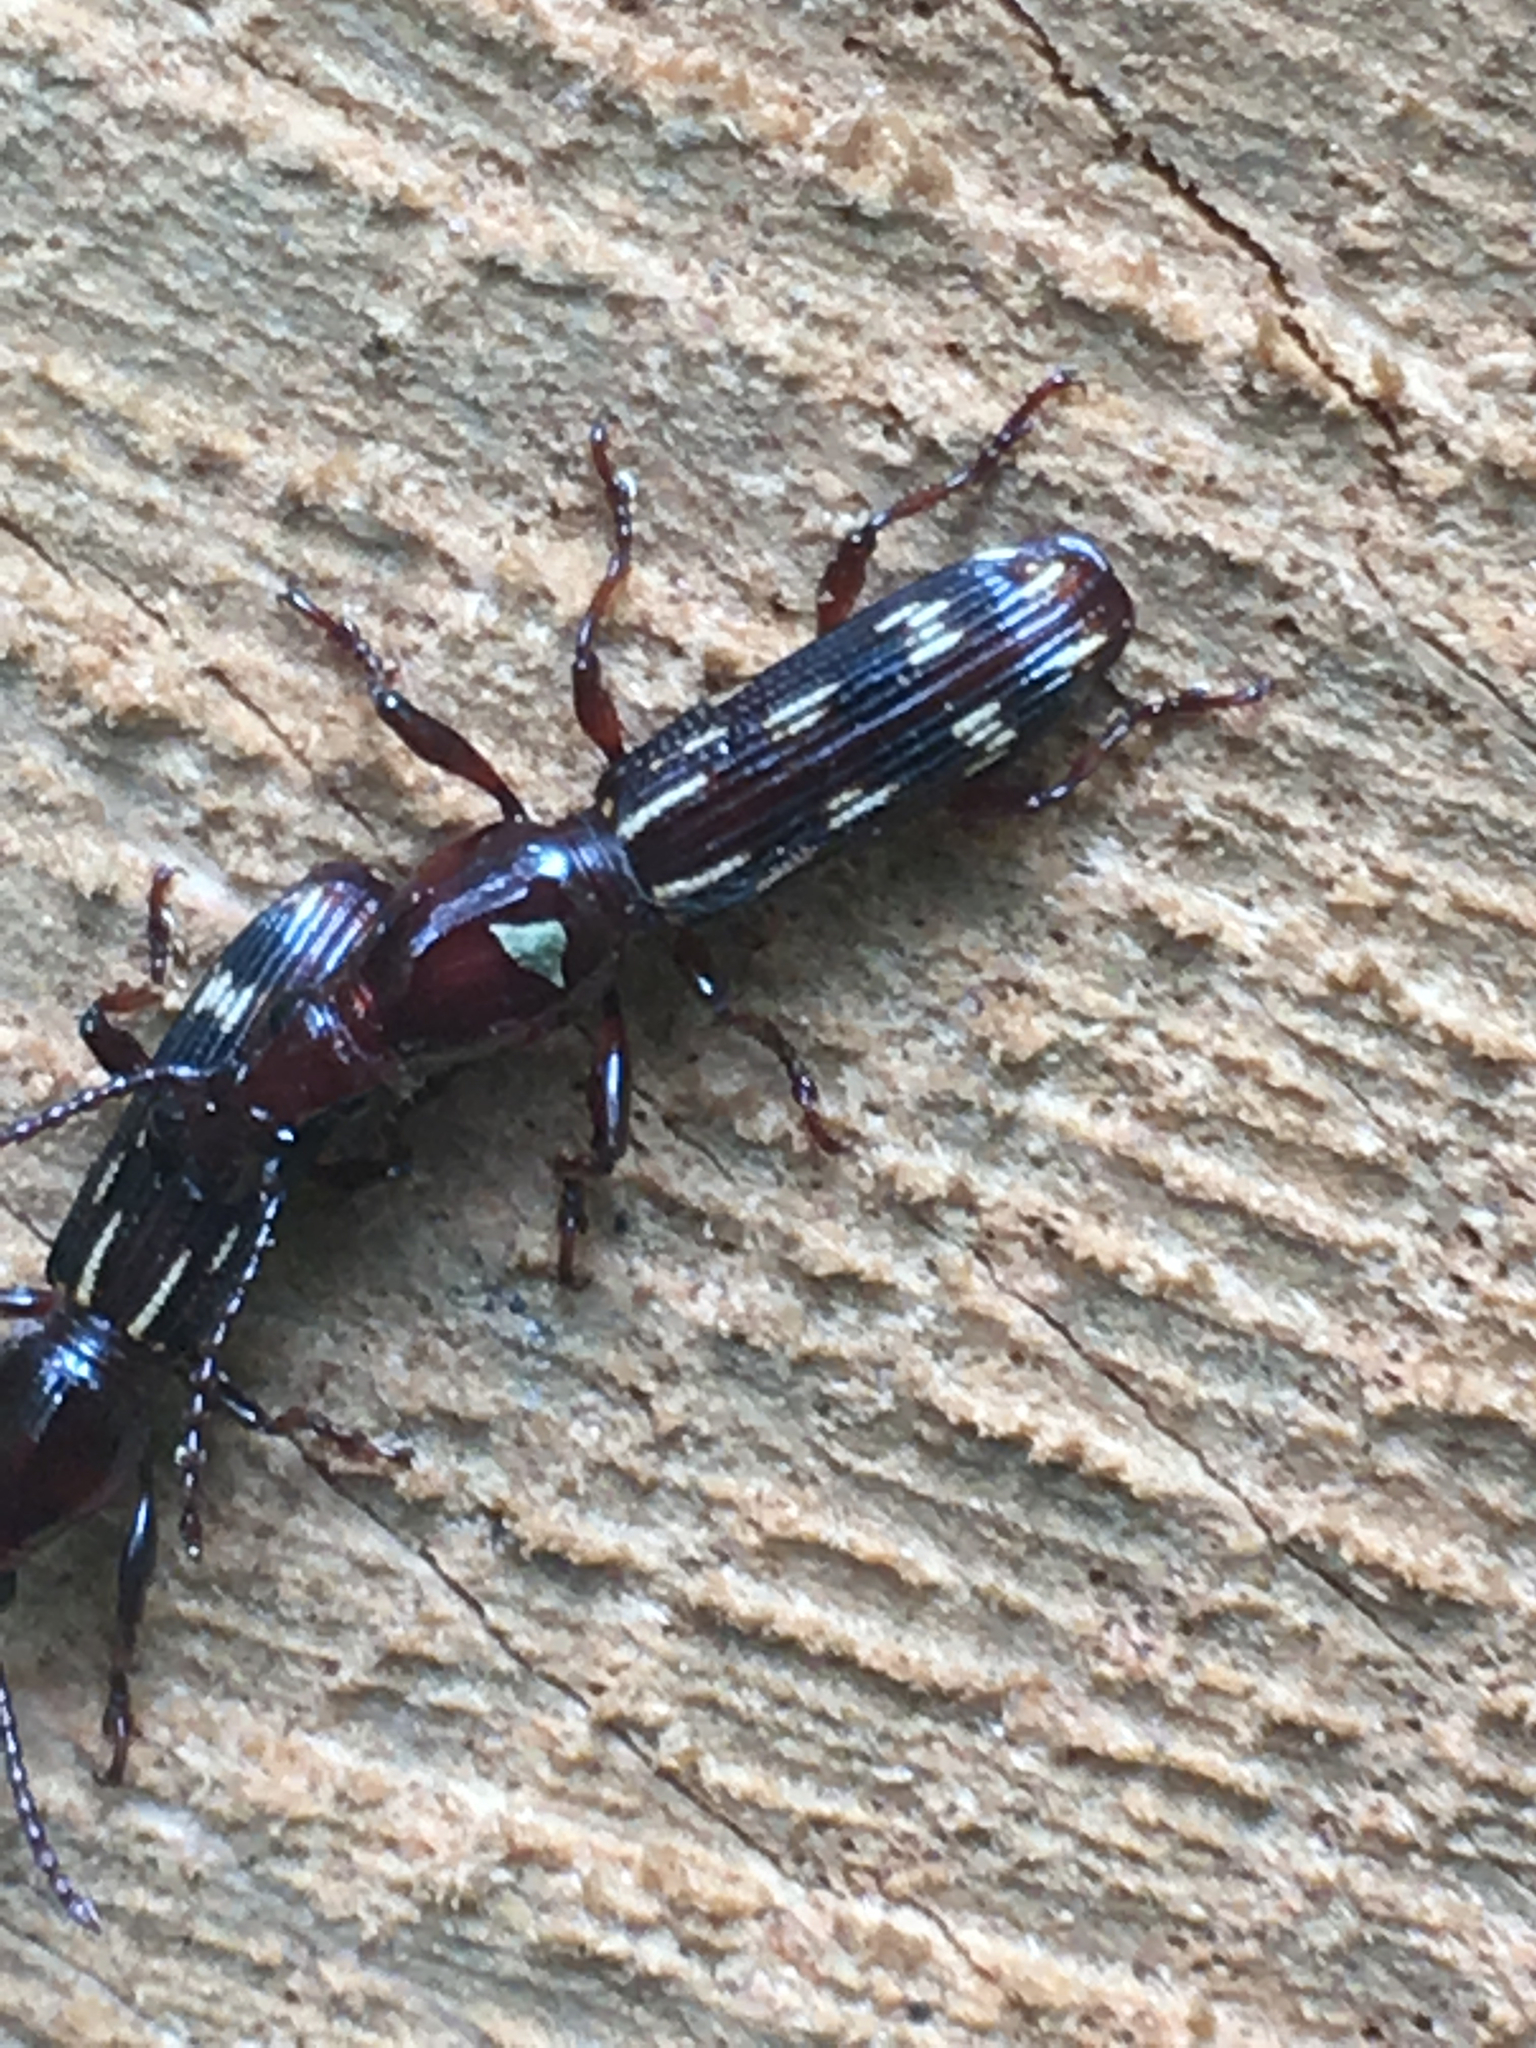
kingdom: Animalia
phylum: Arthropoda
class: Insecta
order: Coleoptera
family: Brentidae
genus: Arrenodes
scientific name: Arrenodes minutus
